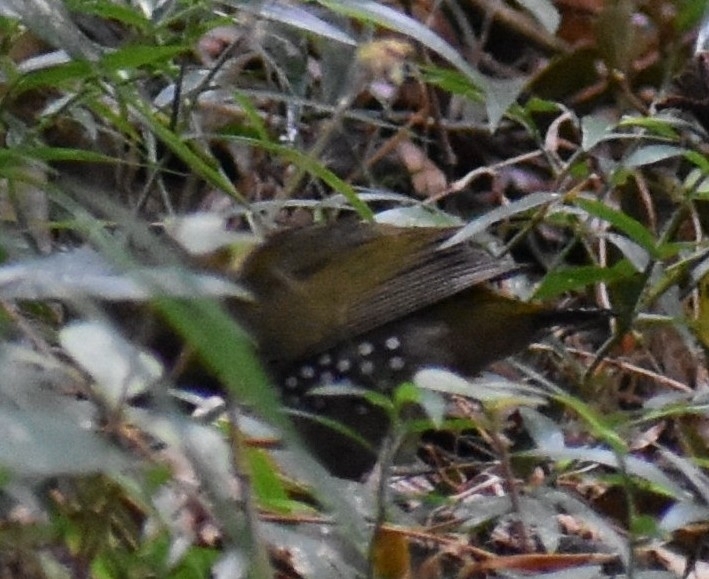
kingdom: Animalia
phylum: Chordata
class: Aves
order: Passeriformes
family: Estrildidae
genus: Mandingoa
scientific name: Mandingoa nitidula
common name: Green twinspot
